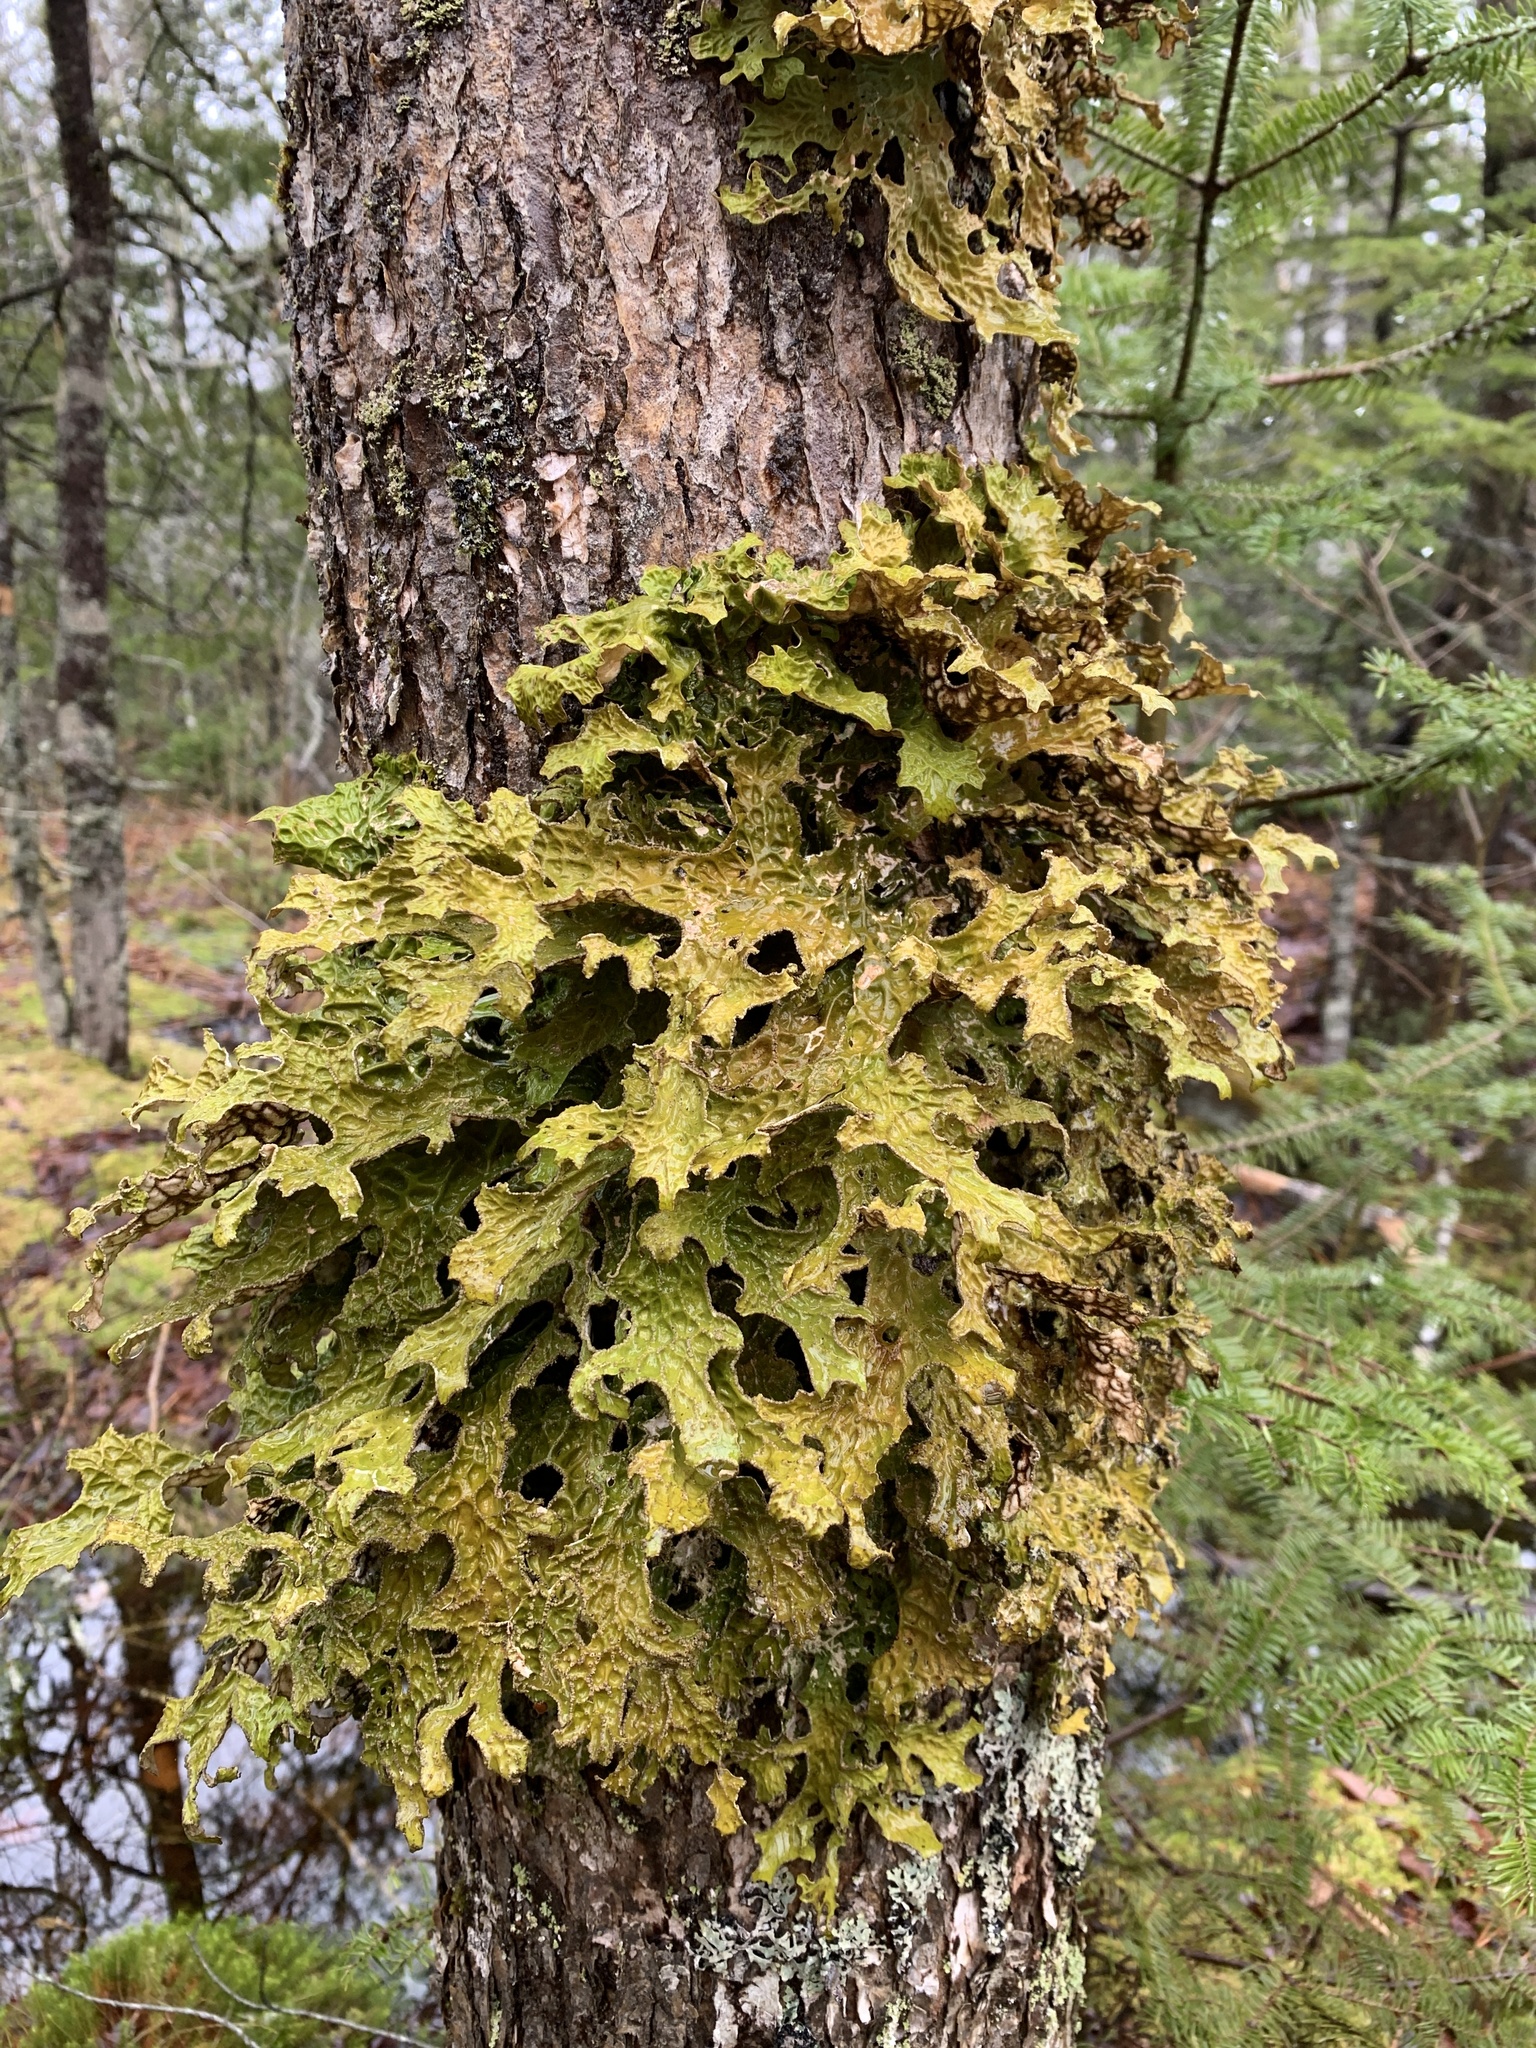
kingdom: Fungi
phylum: Ascomycota
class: Lecanoromycetes
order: Peltigerales
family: Lobariaceae
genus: Lobaria
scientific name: Lobaria pulmonaria
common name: Lungwort
